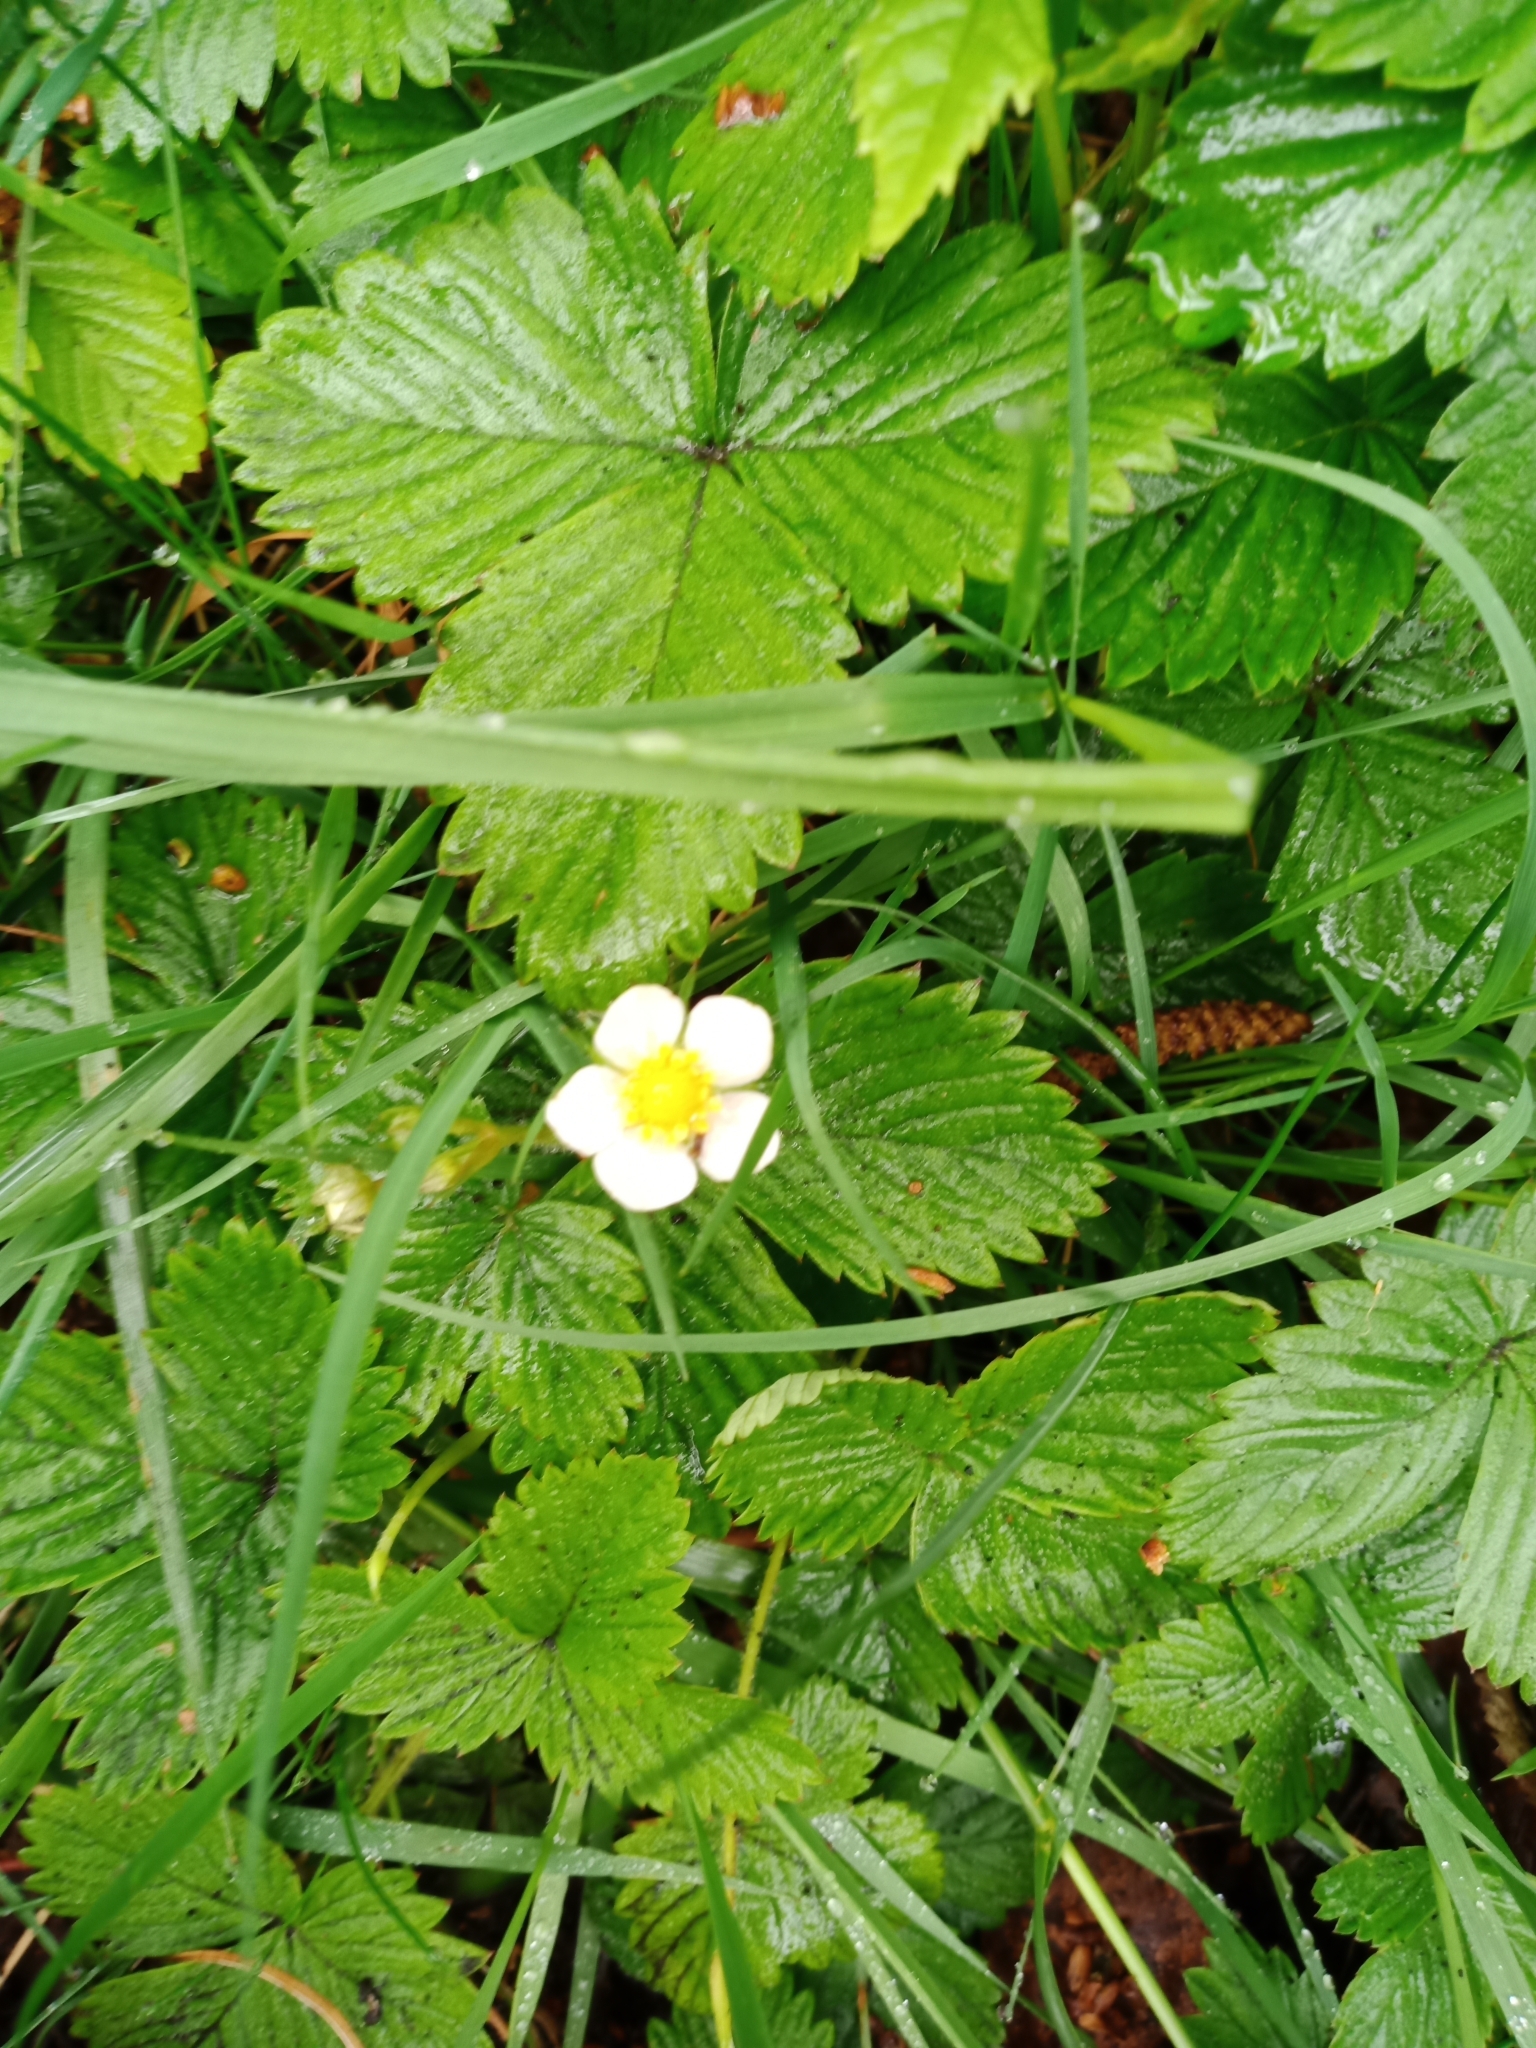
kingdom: Plantae
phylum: Tracheophyta
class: Magnoliopsida
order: Rosales
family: Rosaceae
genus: Fragaria
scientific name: Fragaria vesca
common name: Wild strawberry
